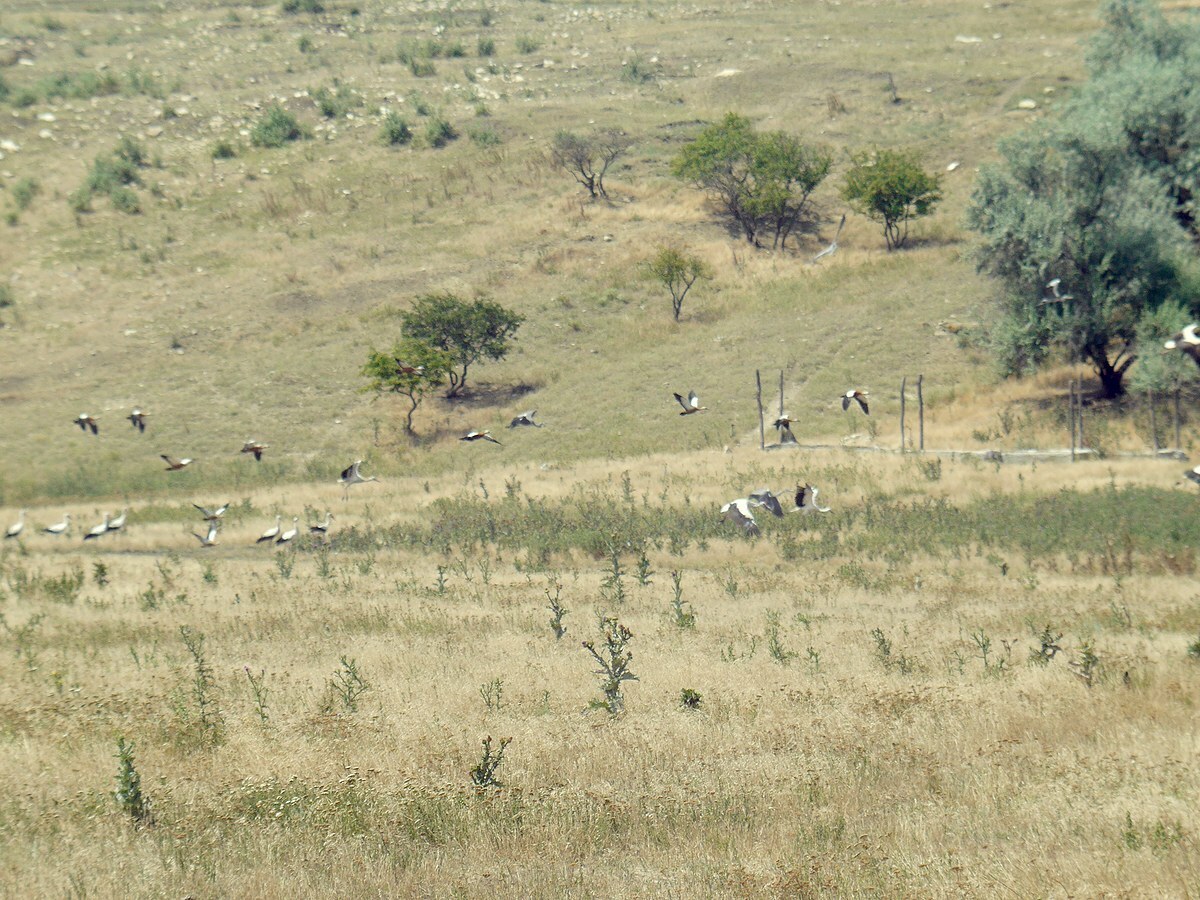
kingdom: Animalia
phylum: Chordata
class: Aves
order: Anseriformes
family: Anatidae
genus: Tadorna
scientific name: Tadorna tadorna
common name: Common shelduck
